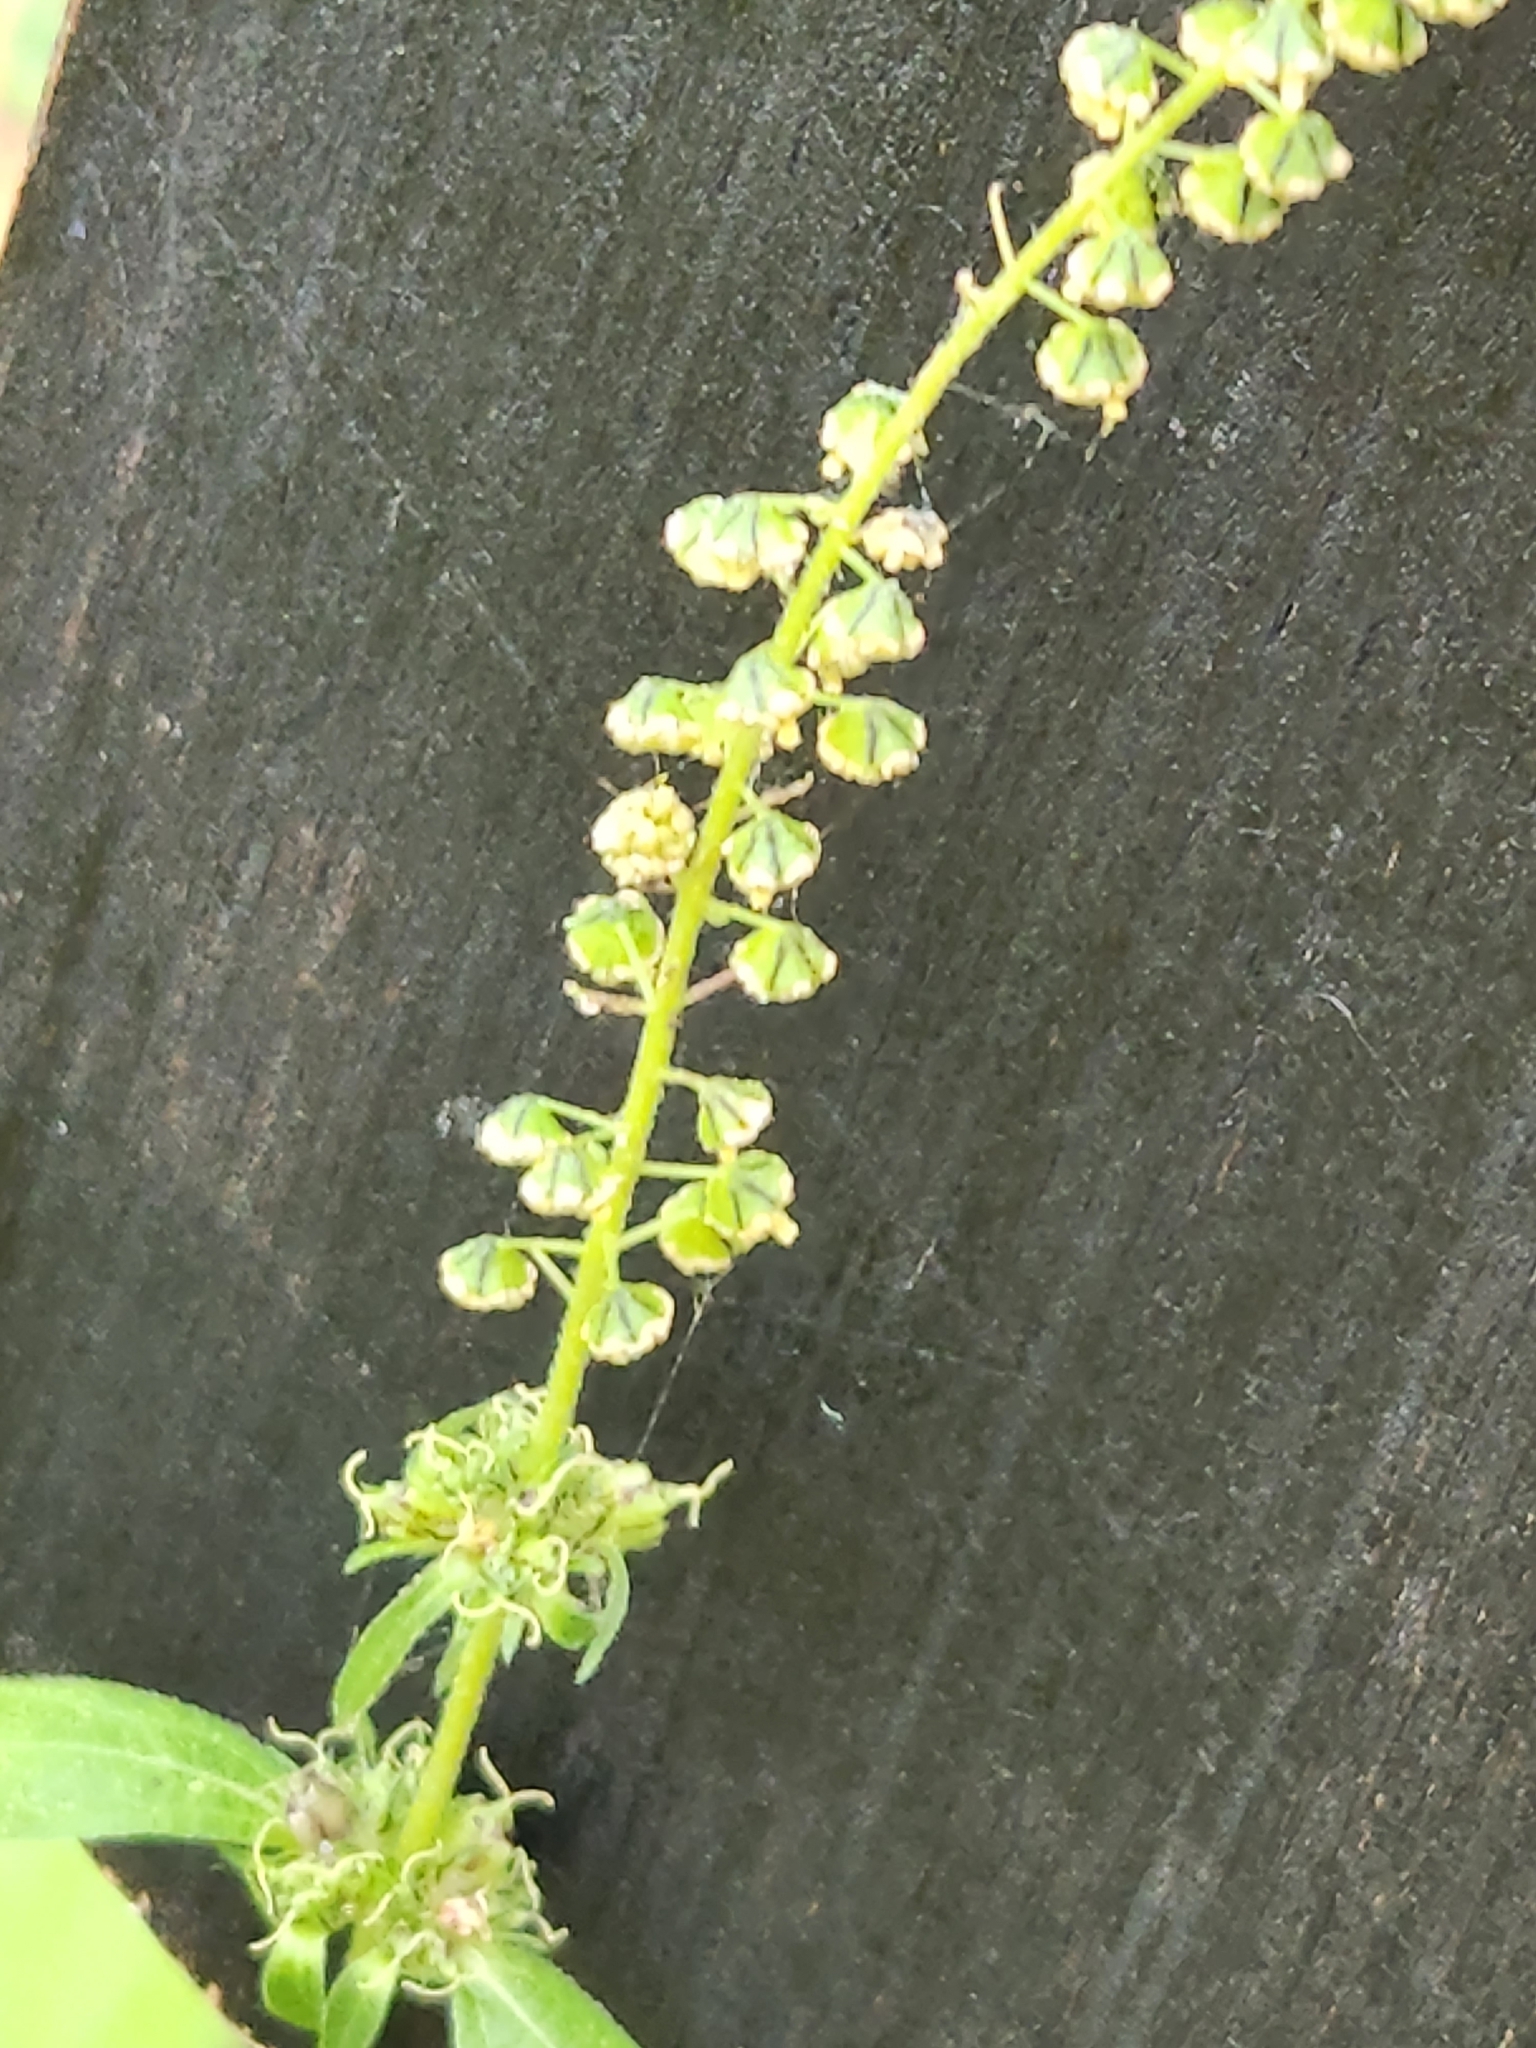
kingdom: Plantae
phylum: Tracheophyta
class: Magnoliopsida
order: Asterales
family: Asteraceae
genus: Ambrosia
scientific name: Ambrosia trifida
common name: Giant ragweed
